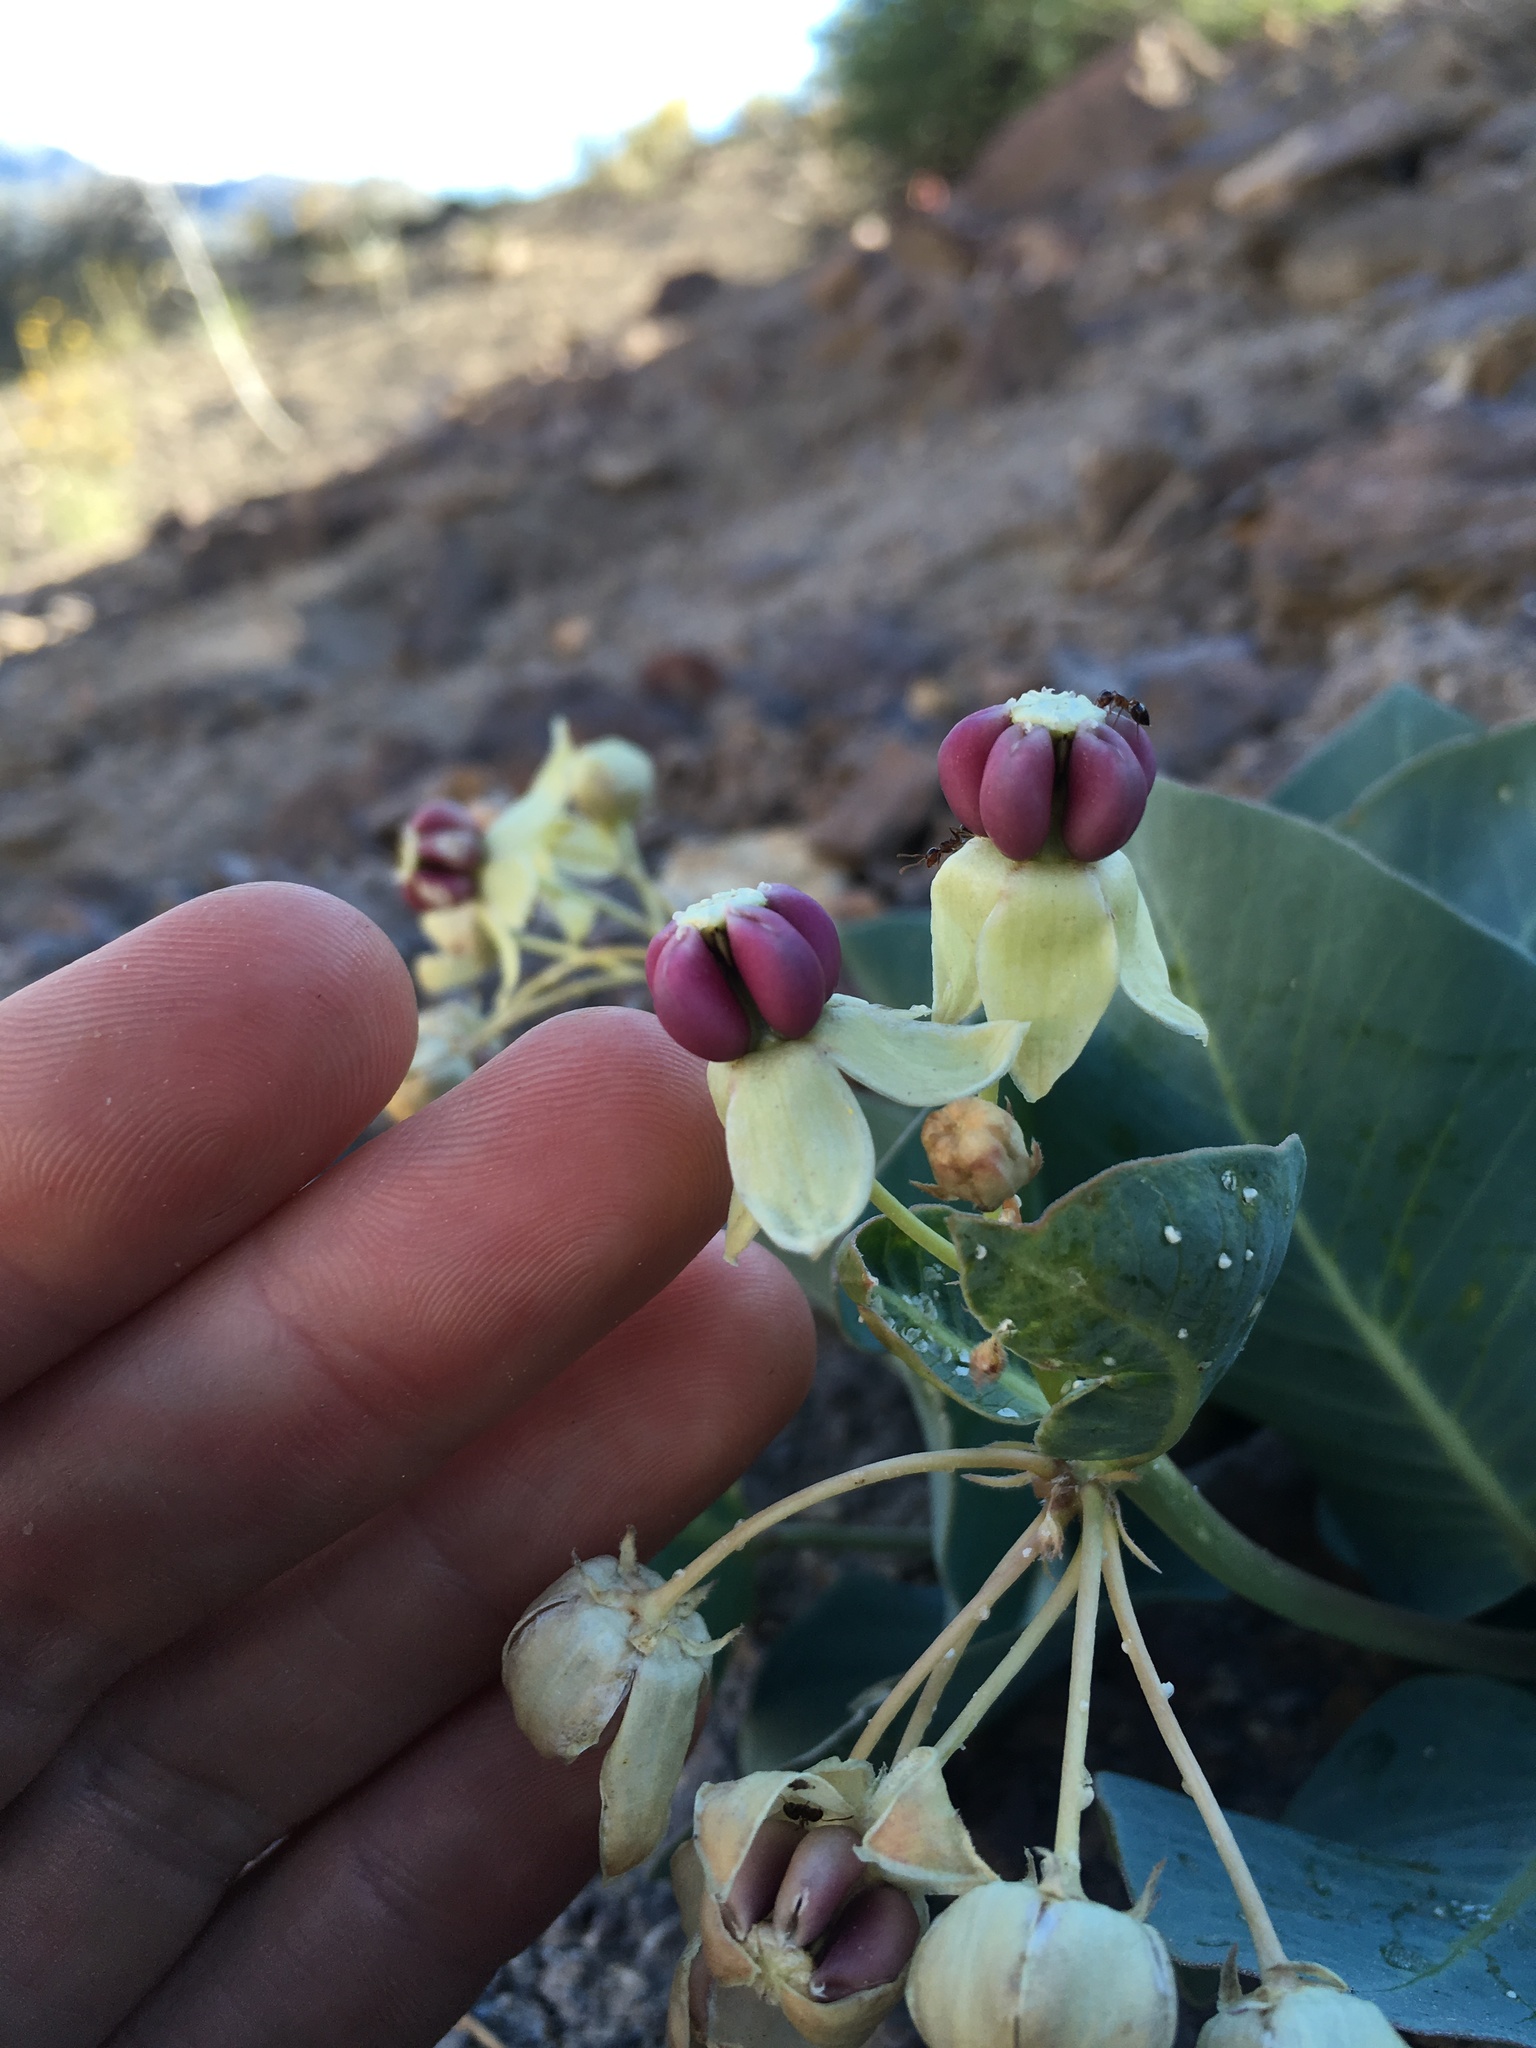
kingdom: Plantae
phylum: Tracheophyta
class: Magnoliopsida
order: Gentianales
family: Apocynaceae
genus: Asclepias
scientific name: Asclepias cryptoceras
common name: Humboldt mountains milkweed
